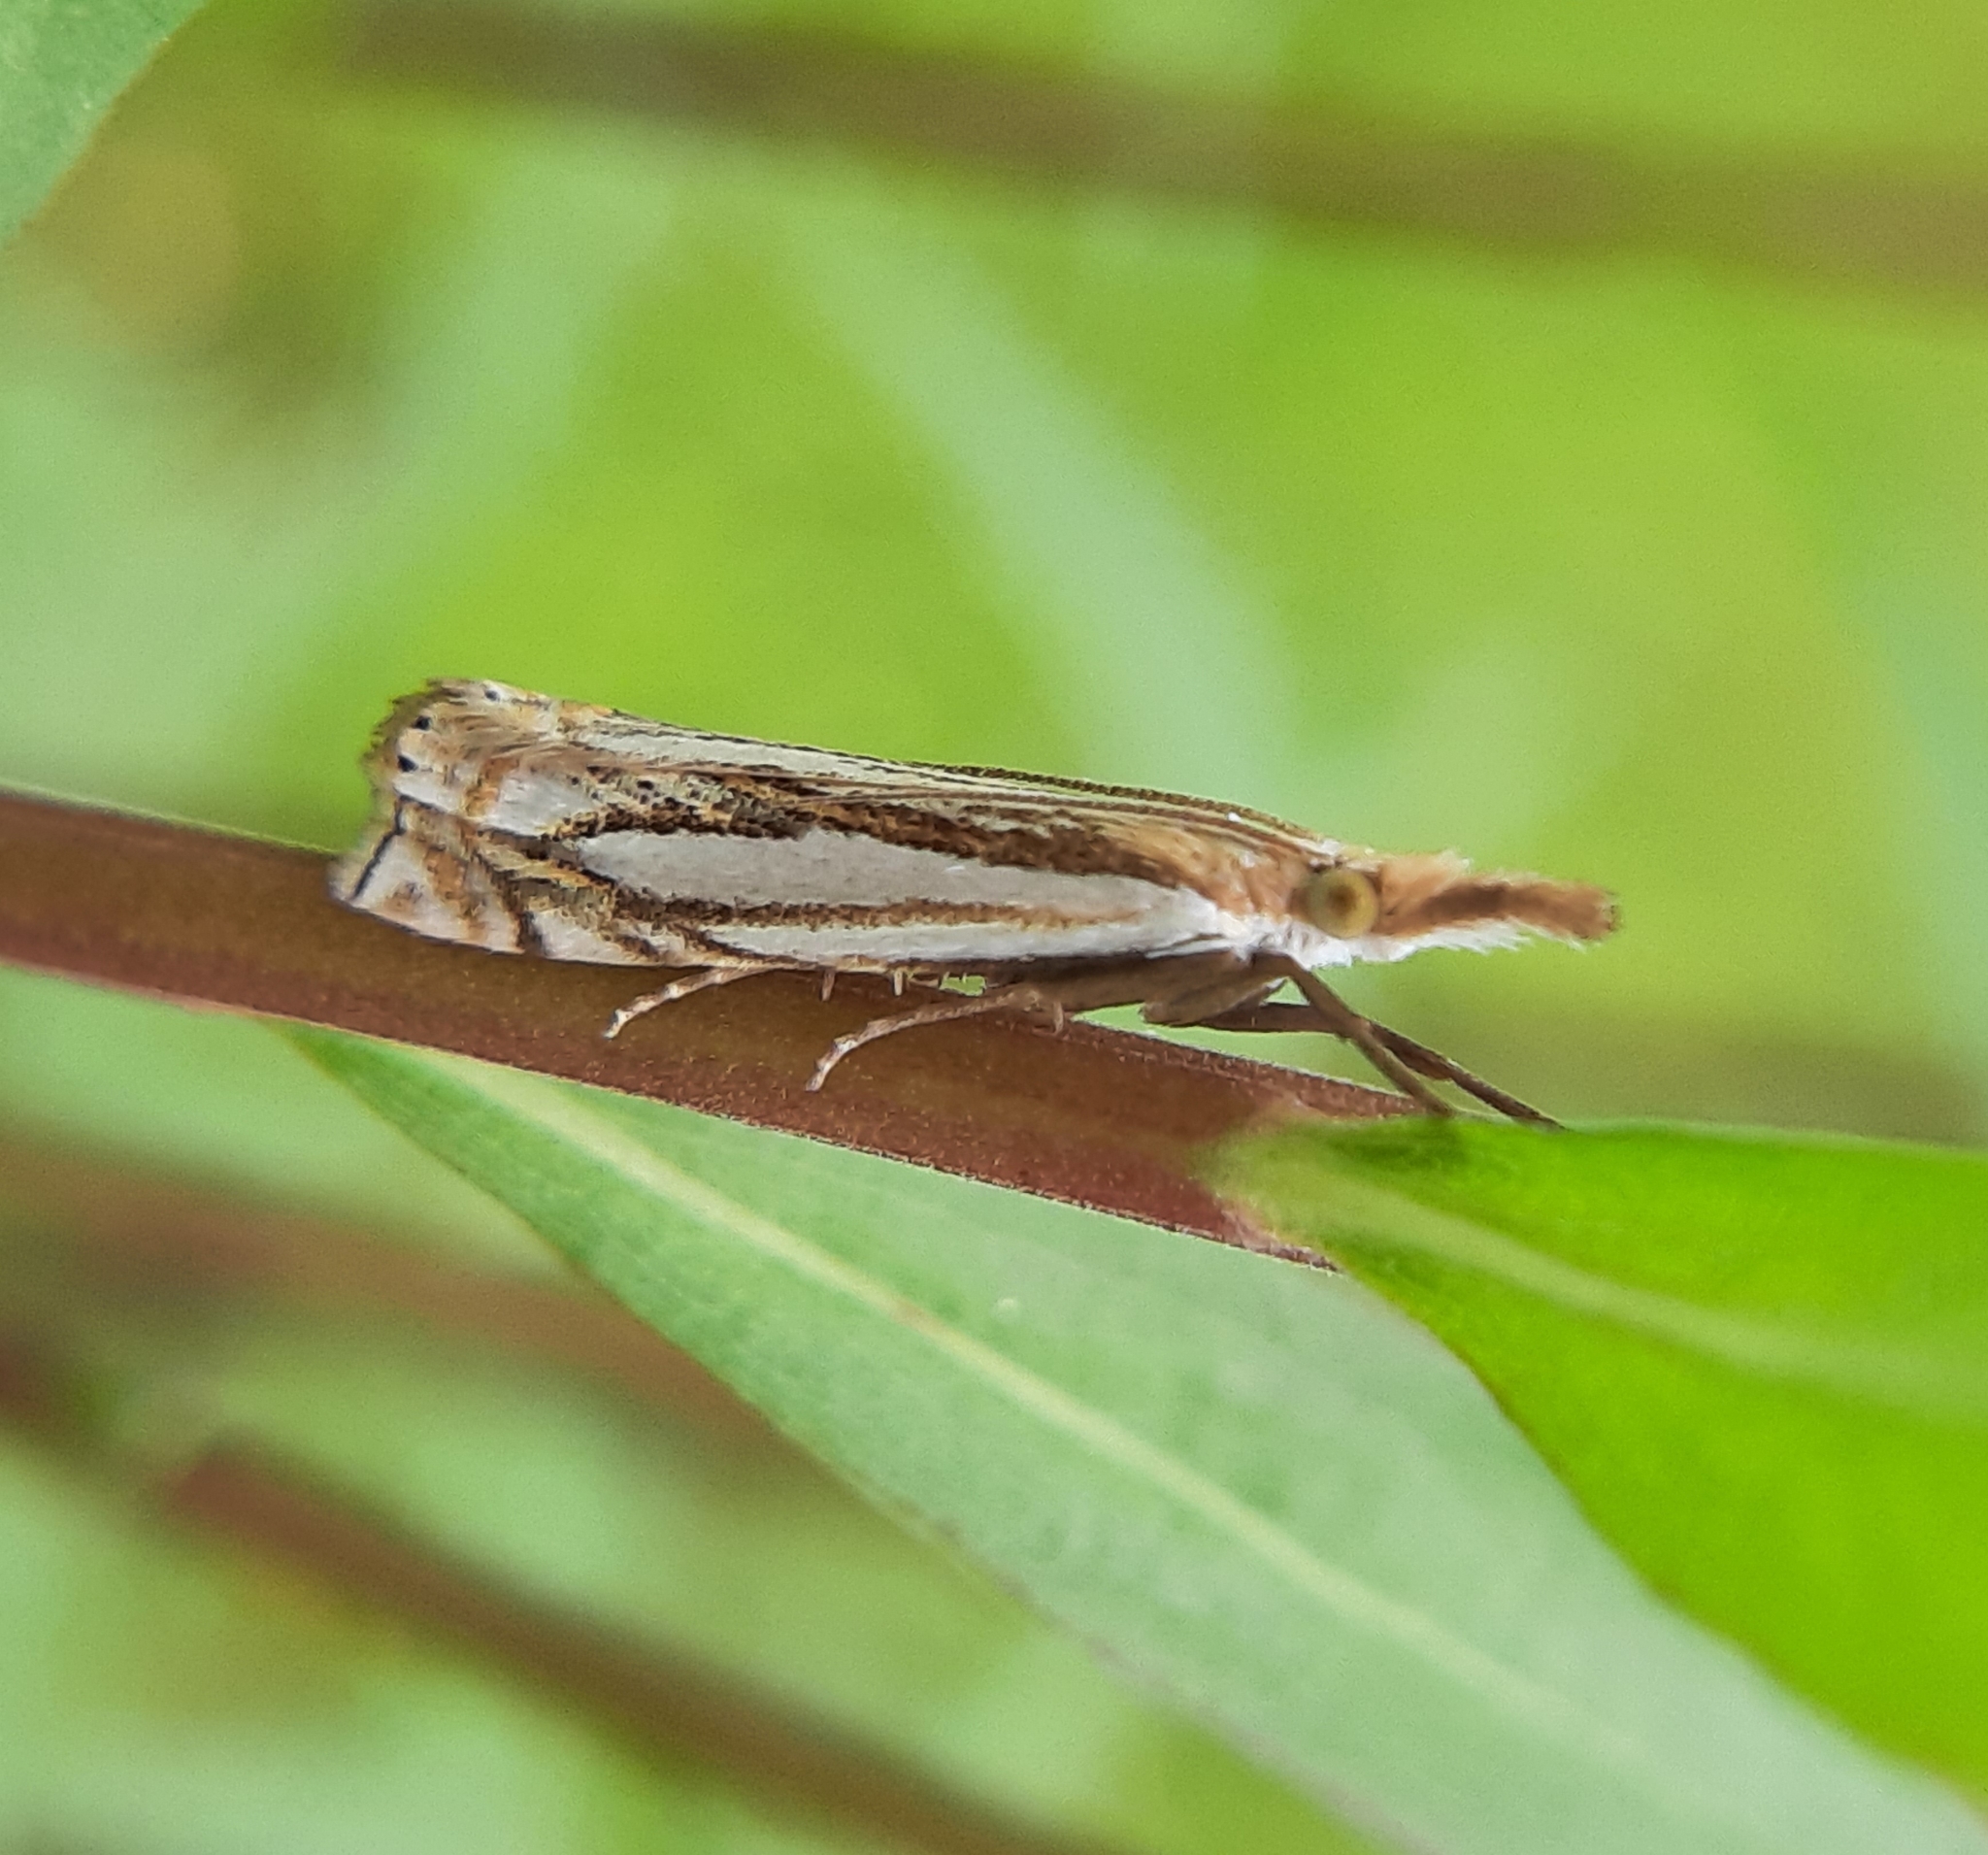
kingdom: Animalia
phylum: Arthropoda
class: Insecta
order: Lepidoptera
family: Crambidae
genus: Crambus
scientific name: Crambus saltuellus
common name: Pasture grass-veneer
